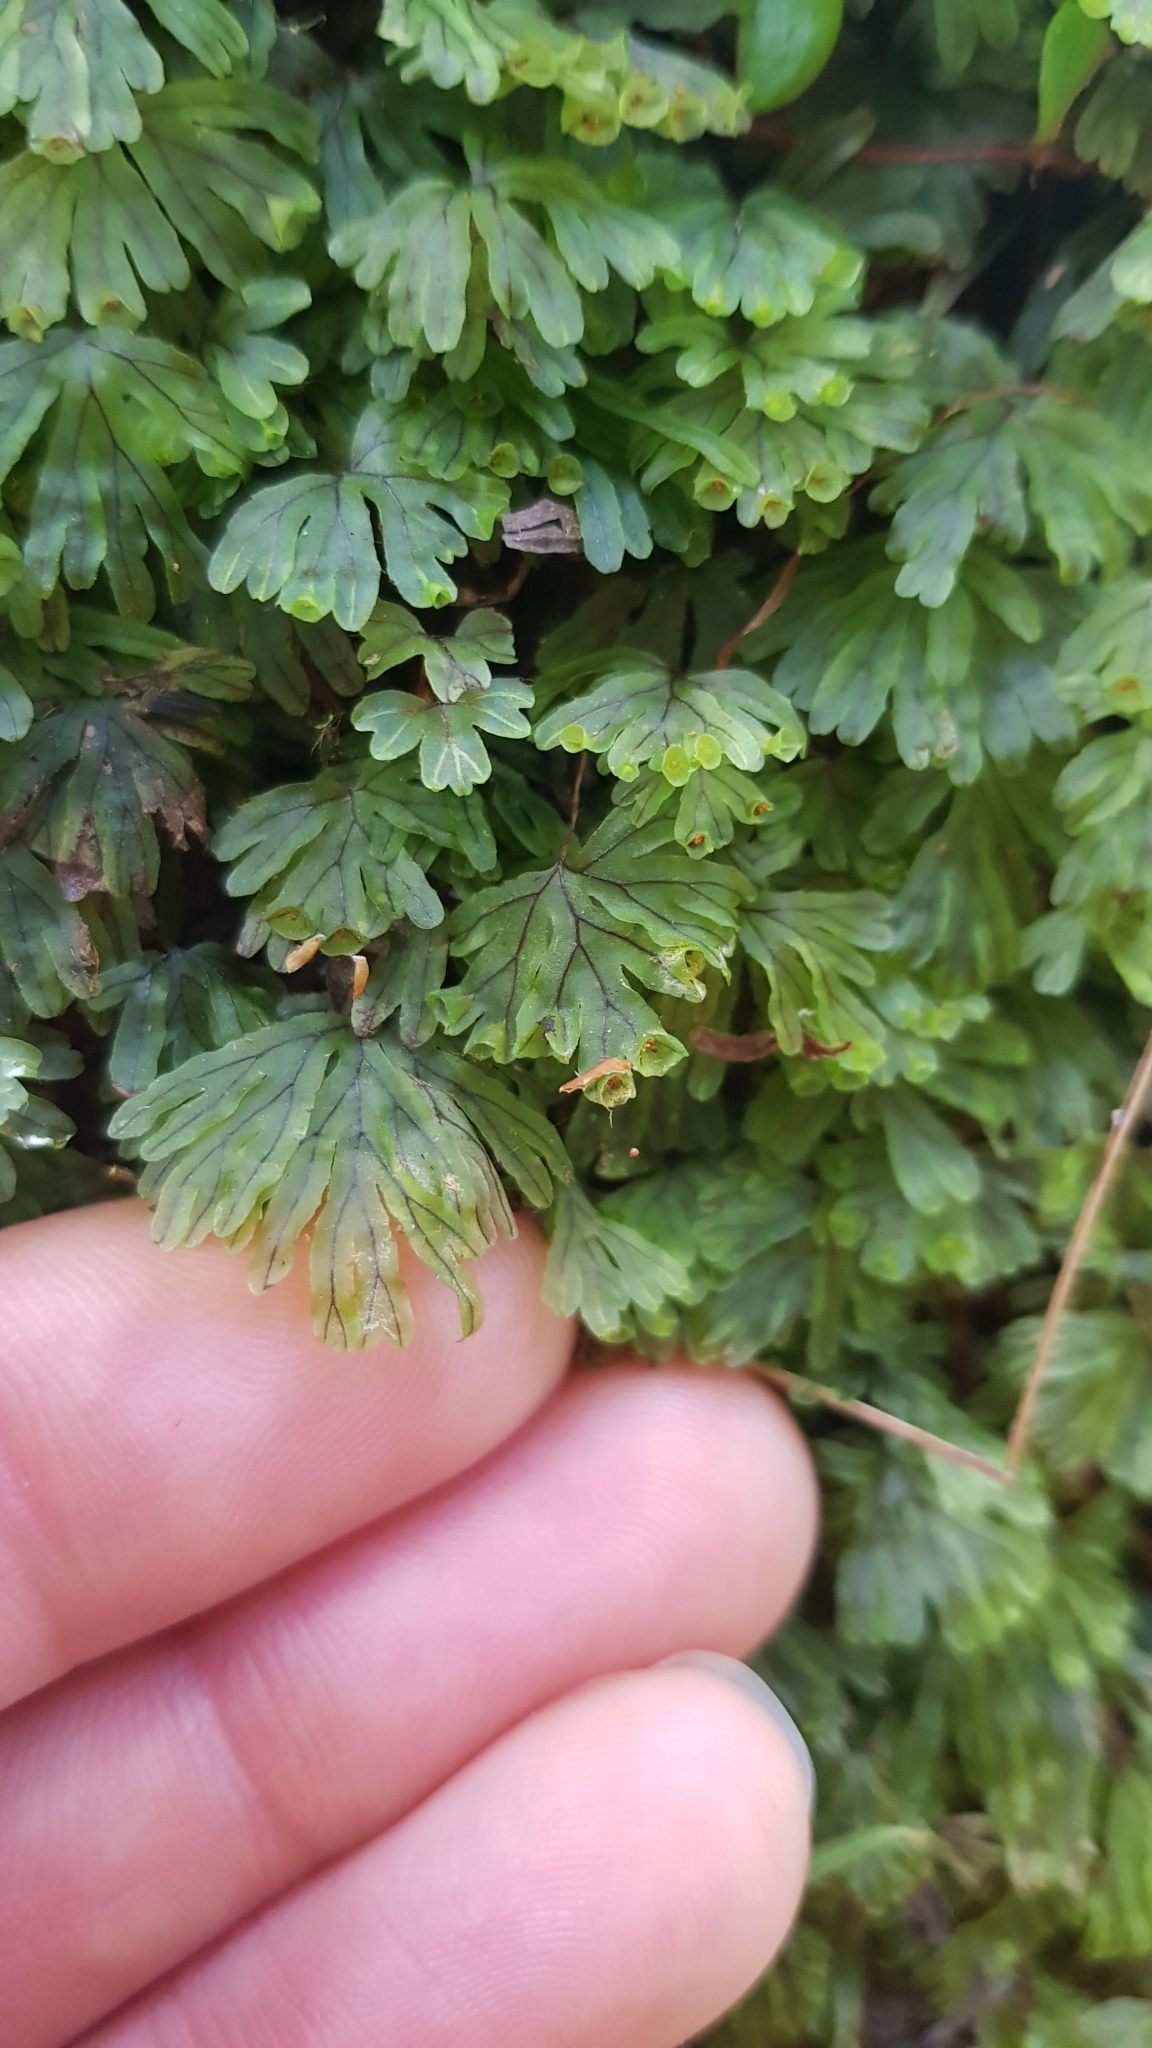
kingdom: Plantae
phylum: Tracheophyta
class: Polypodiopsida
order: Hymenophyllales
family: Hymenophyllaceae
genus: Hymenophyllum
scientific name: Hymenophyllum lyallii
